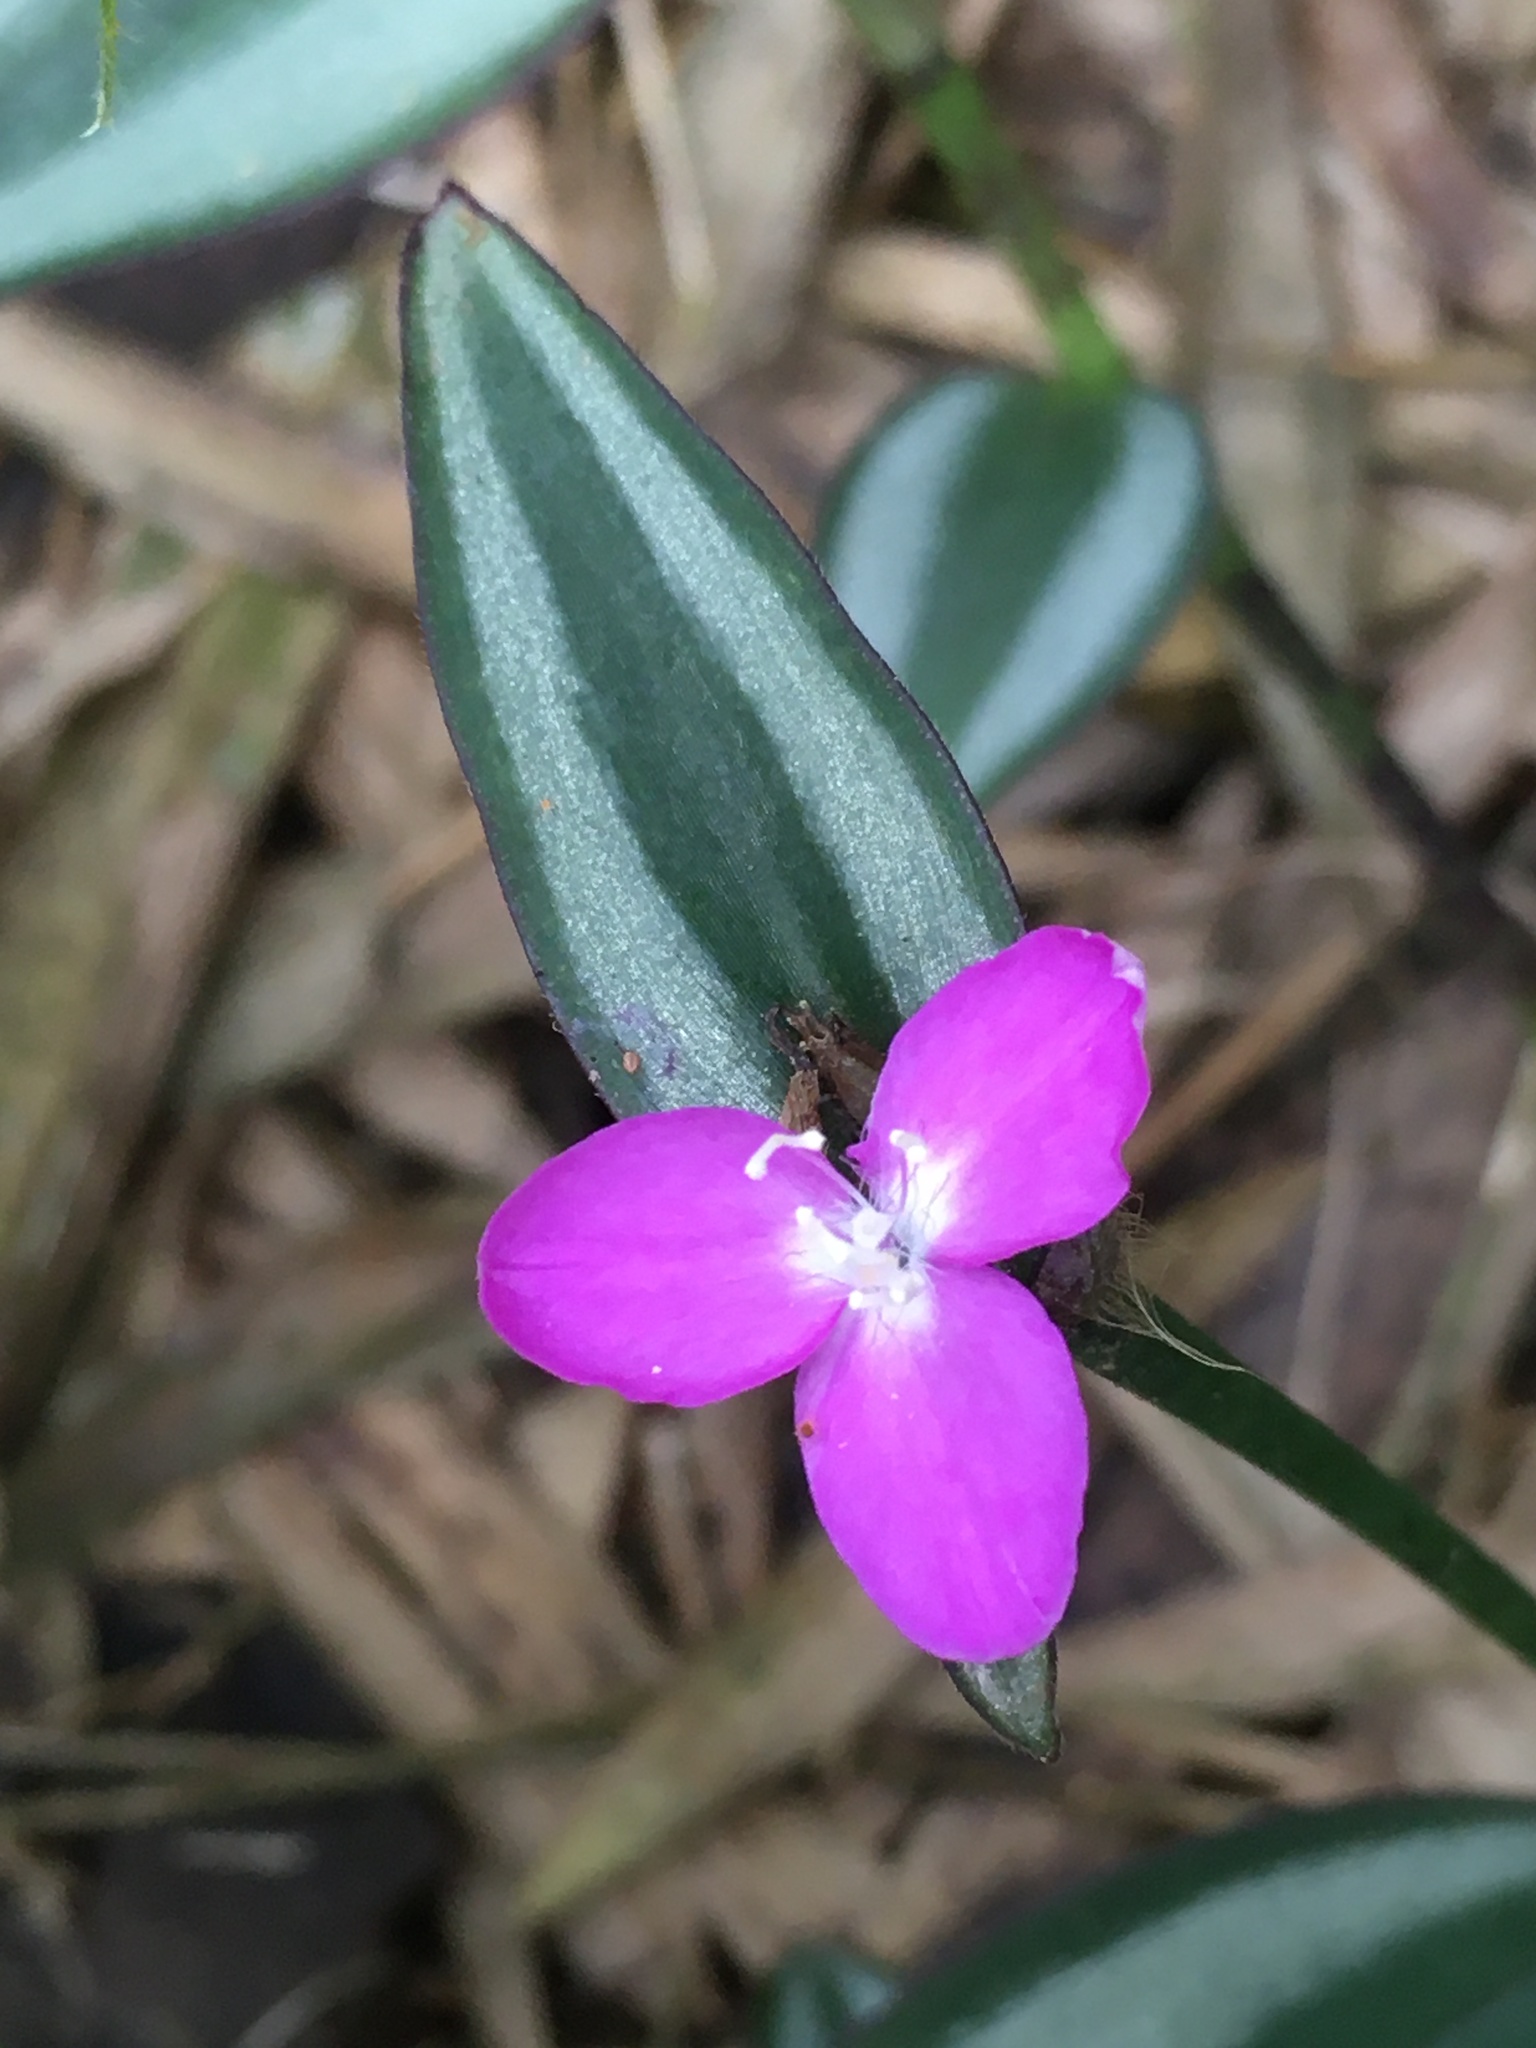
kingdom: Plantae
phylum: Tracheophyta
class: Liliopsida
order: Commelinales
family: Commelinaceae
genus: Tradescantia
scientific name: Tradescantia zebrina
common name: Inchplant
